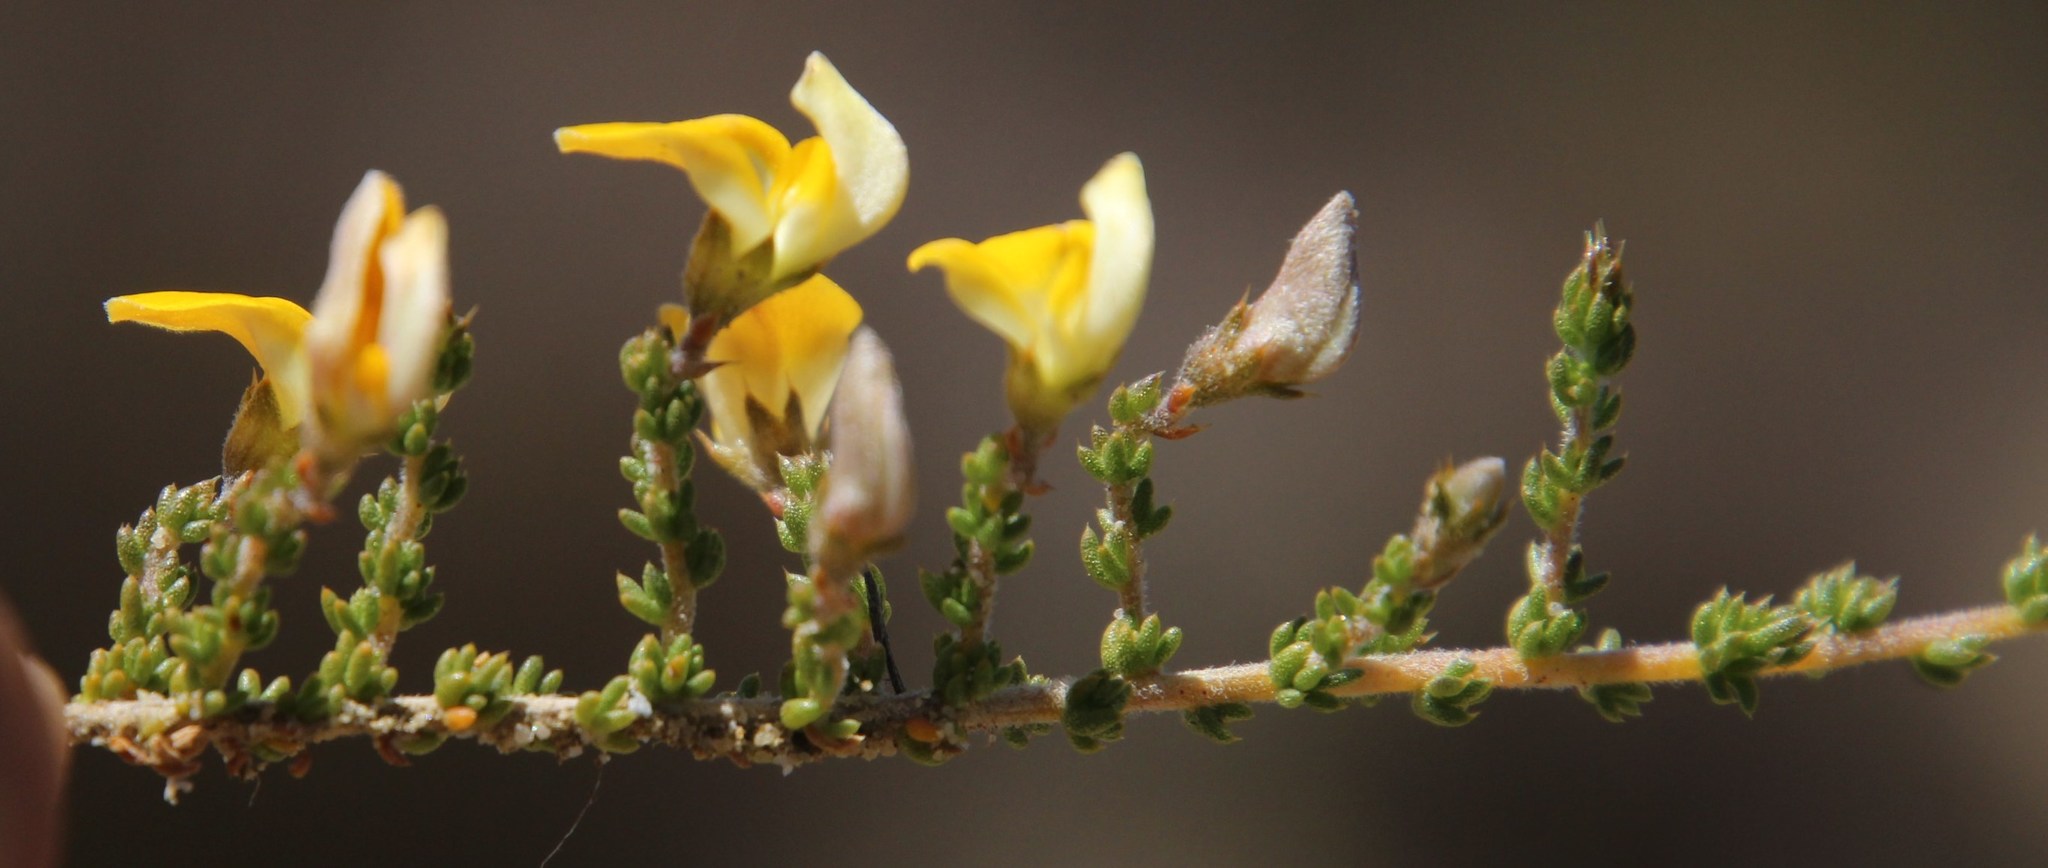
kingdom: Plantae
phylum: Tracheophyta
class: Magnoliopsida
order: Fabales
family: Fabaceae
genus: Aspalathus
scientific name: Aspalathus rostripetala
